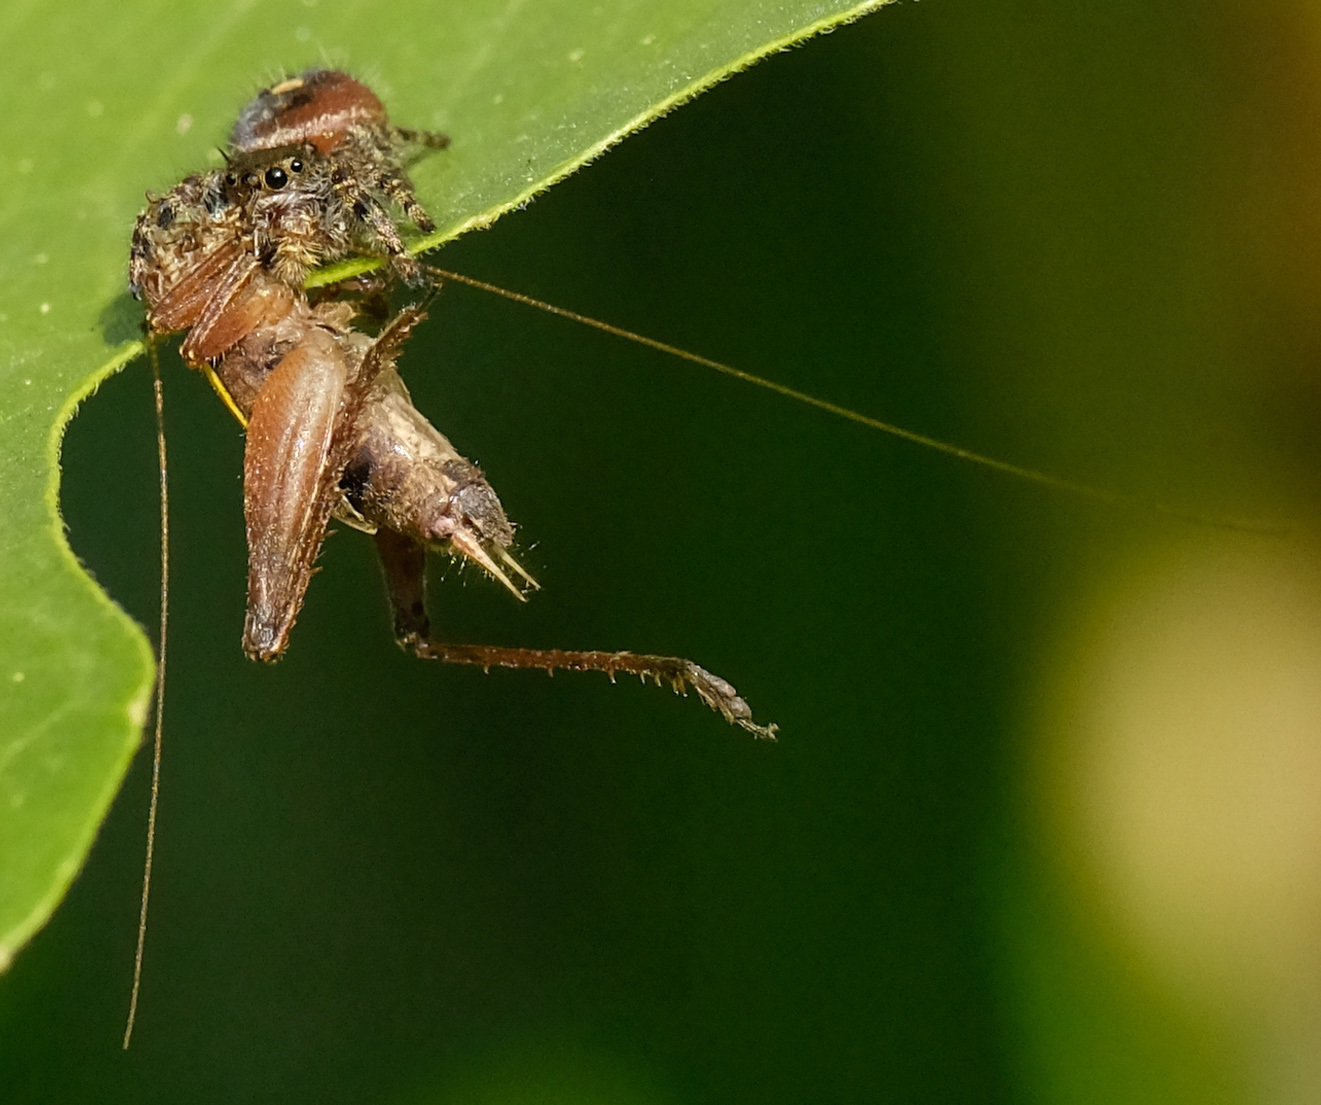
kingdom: Animalia
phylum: Arthropoda
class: Insecta
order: Orthoptera
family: Gryllidae
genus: Hapithus
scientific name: Hapithus agitator
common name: Restless bush cricket
